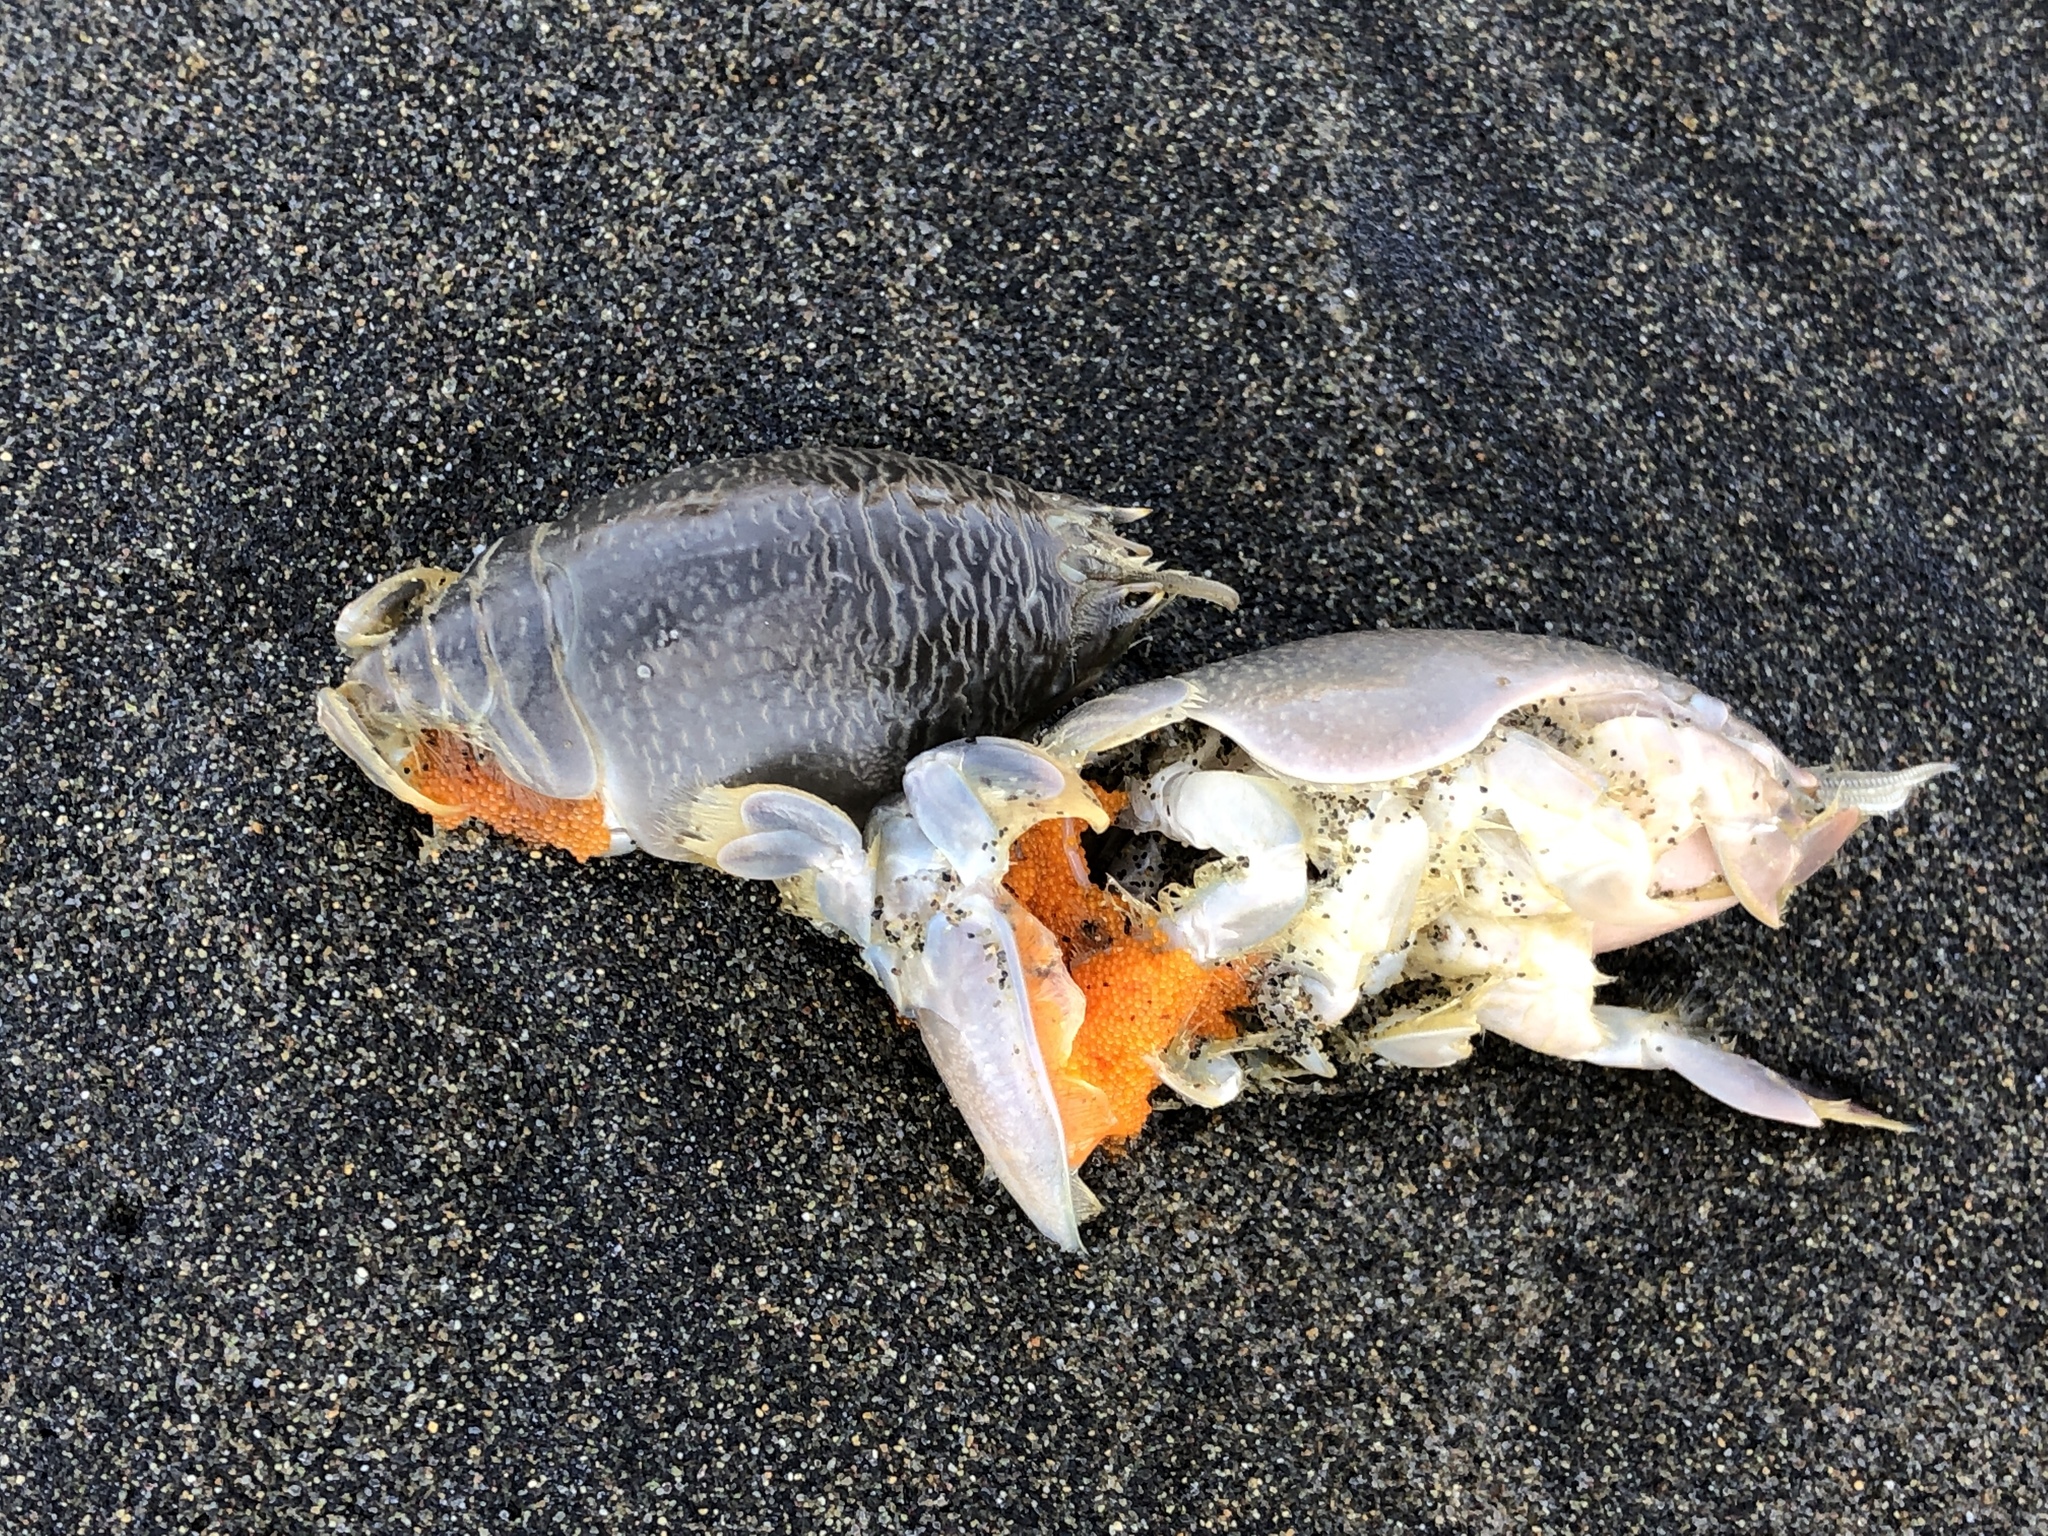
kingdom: Animalia
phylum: Arthropoda
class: Malacostraca
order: Decapoda
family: Hippidae
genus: Emerita
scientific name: Emerita analoga
